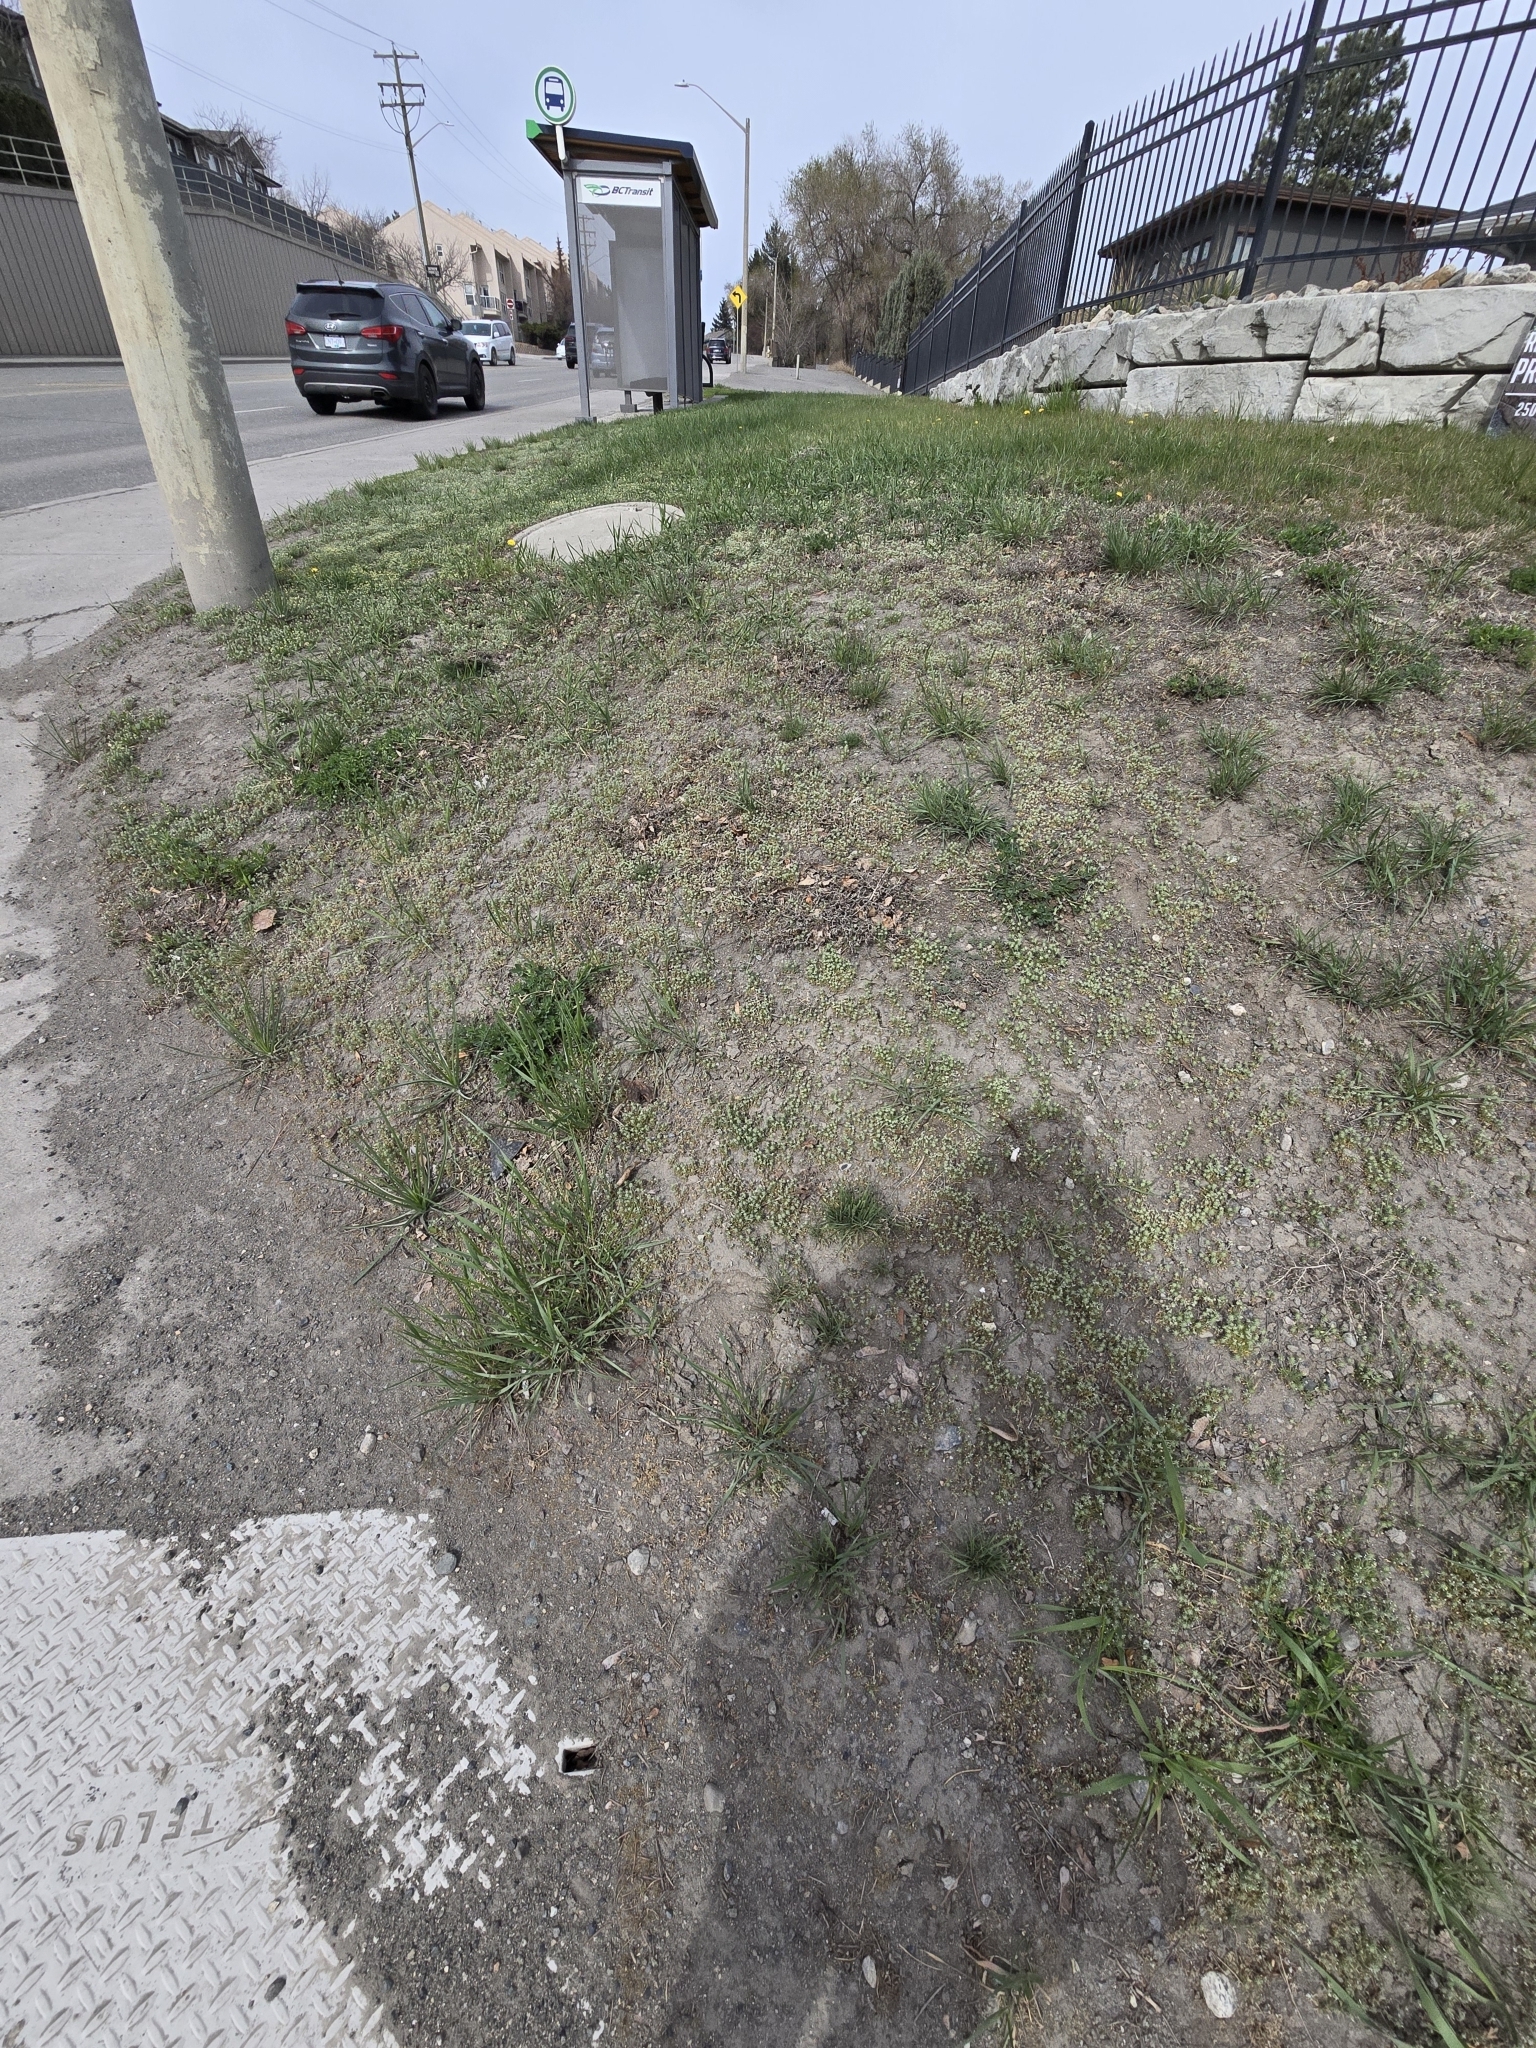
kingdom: Plantae
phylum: Tracheophyta
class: Magnoliopsida
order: Ranunculales
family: Ranunculaceae
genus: Ceratocephala
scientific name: Ceratocephala orthoceras
